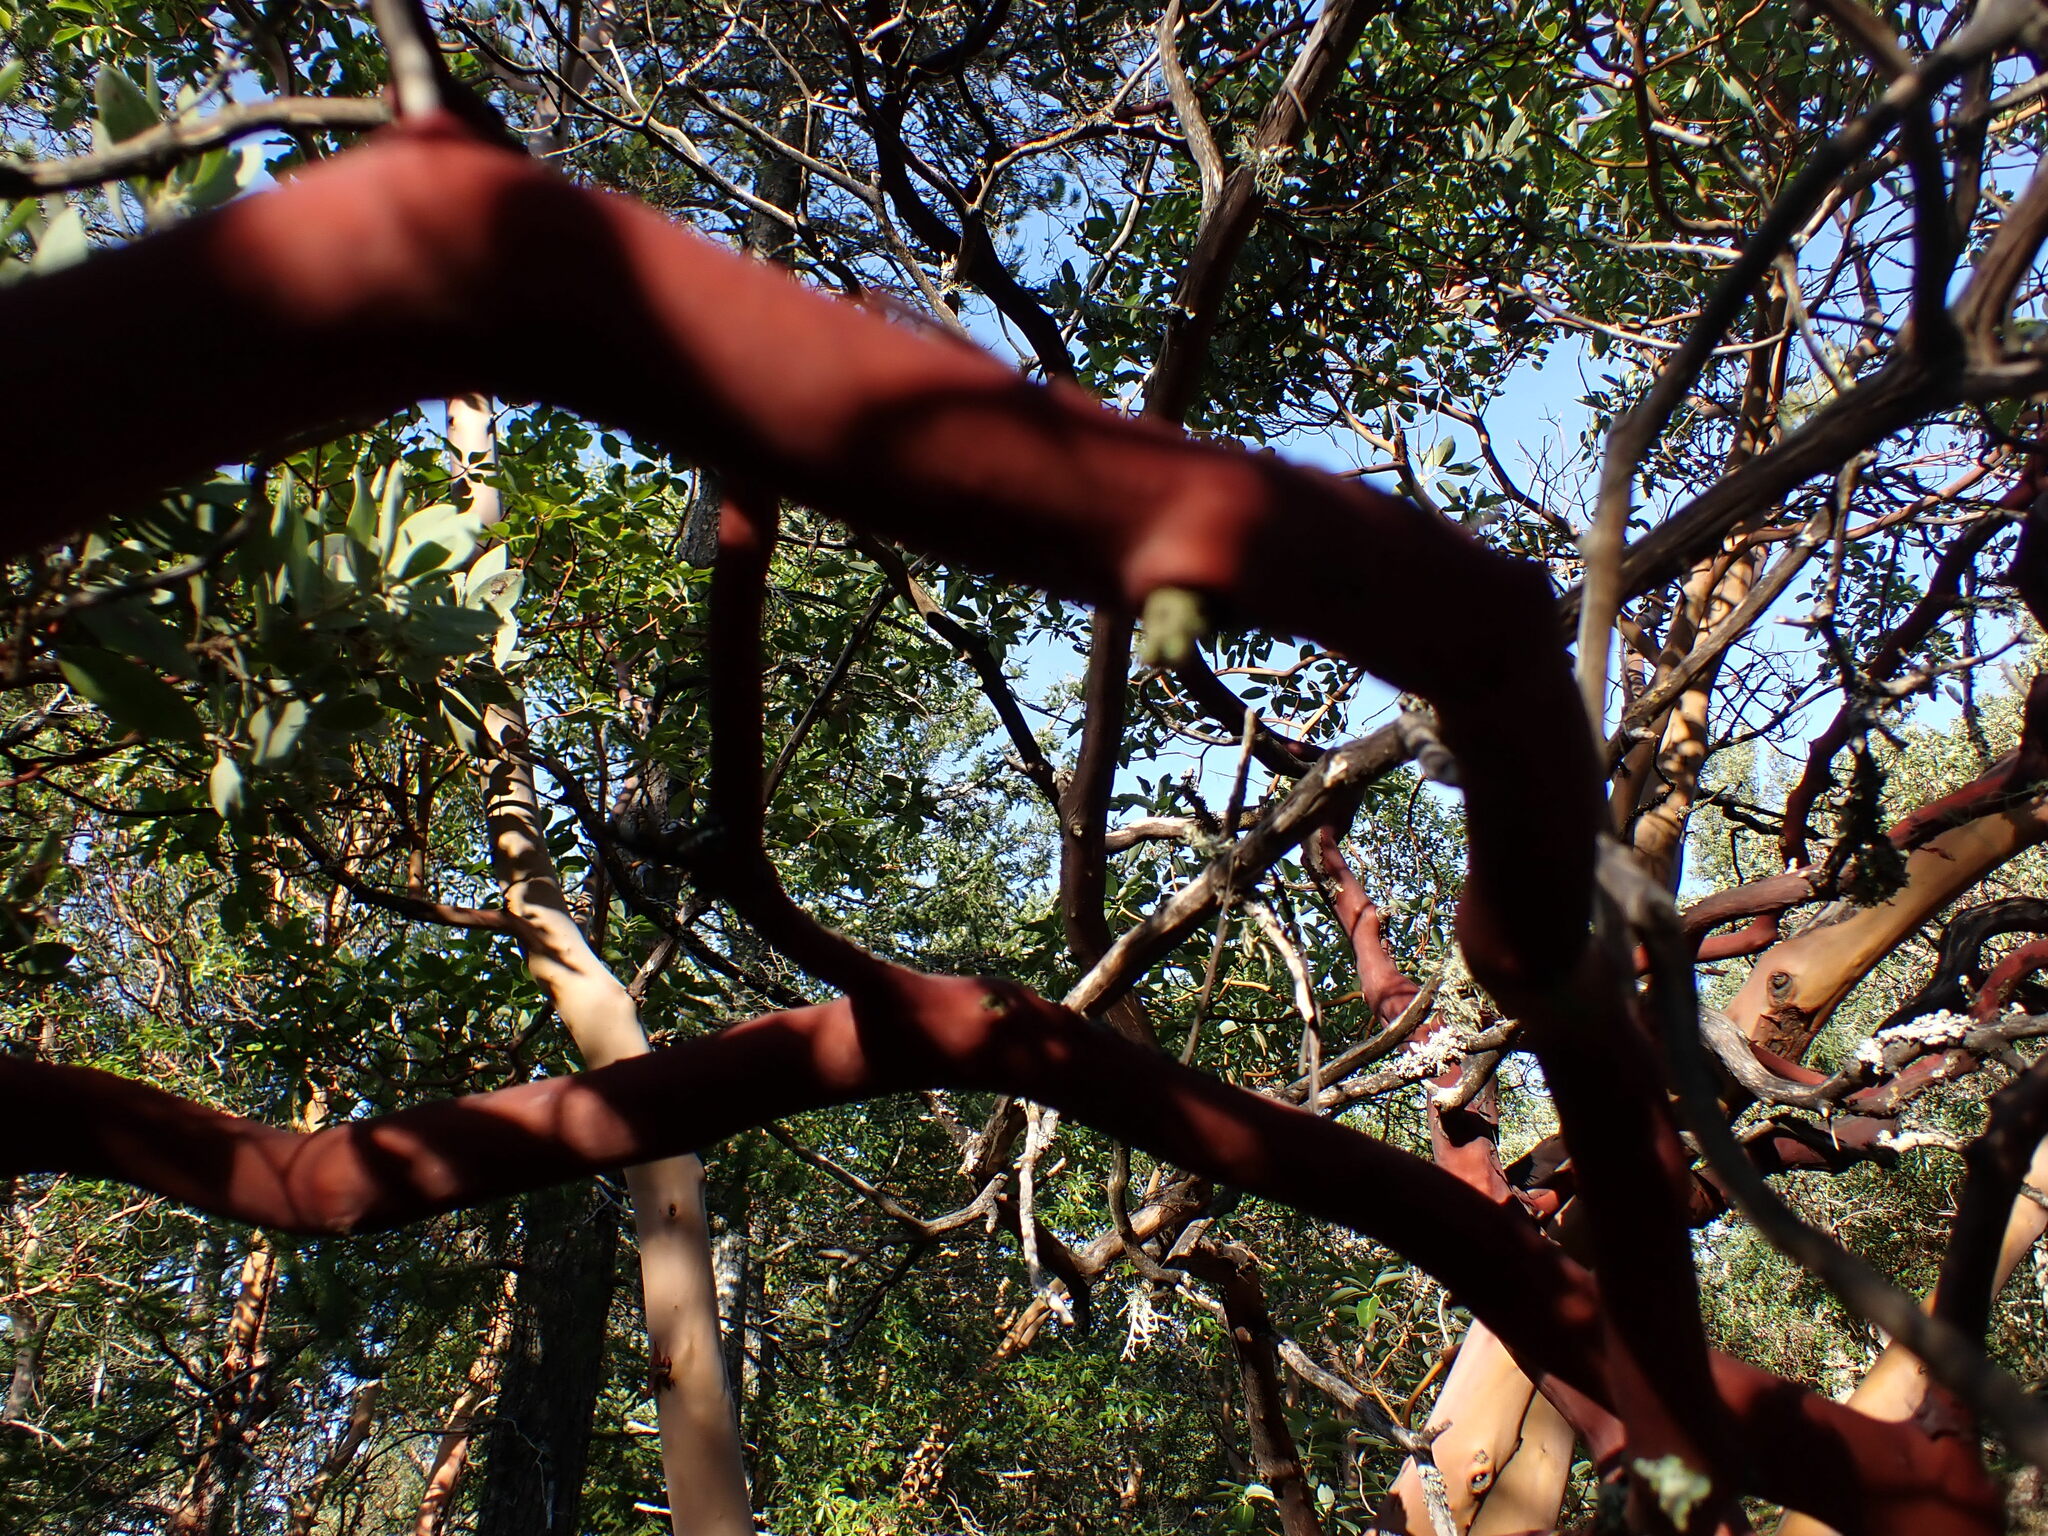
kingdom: Plantae
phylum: Tracheophyta
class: Magnoliopsida
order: Ericales
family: Ericaceae
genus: Arctostaphylos
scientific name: Arctostaphylos columbiana
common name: Bristly bearberry
